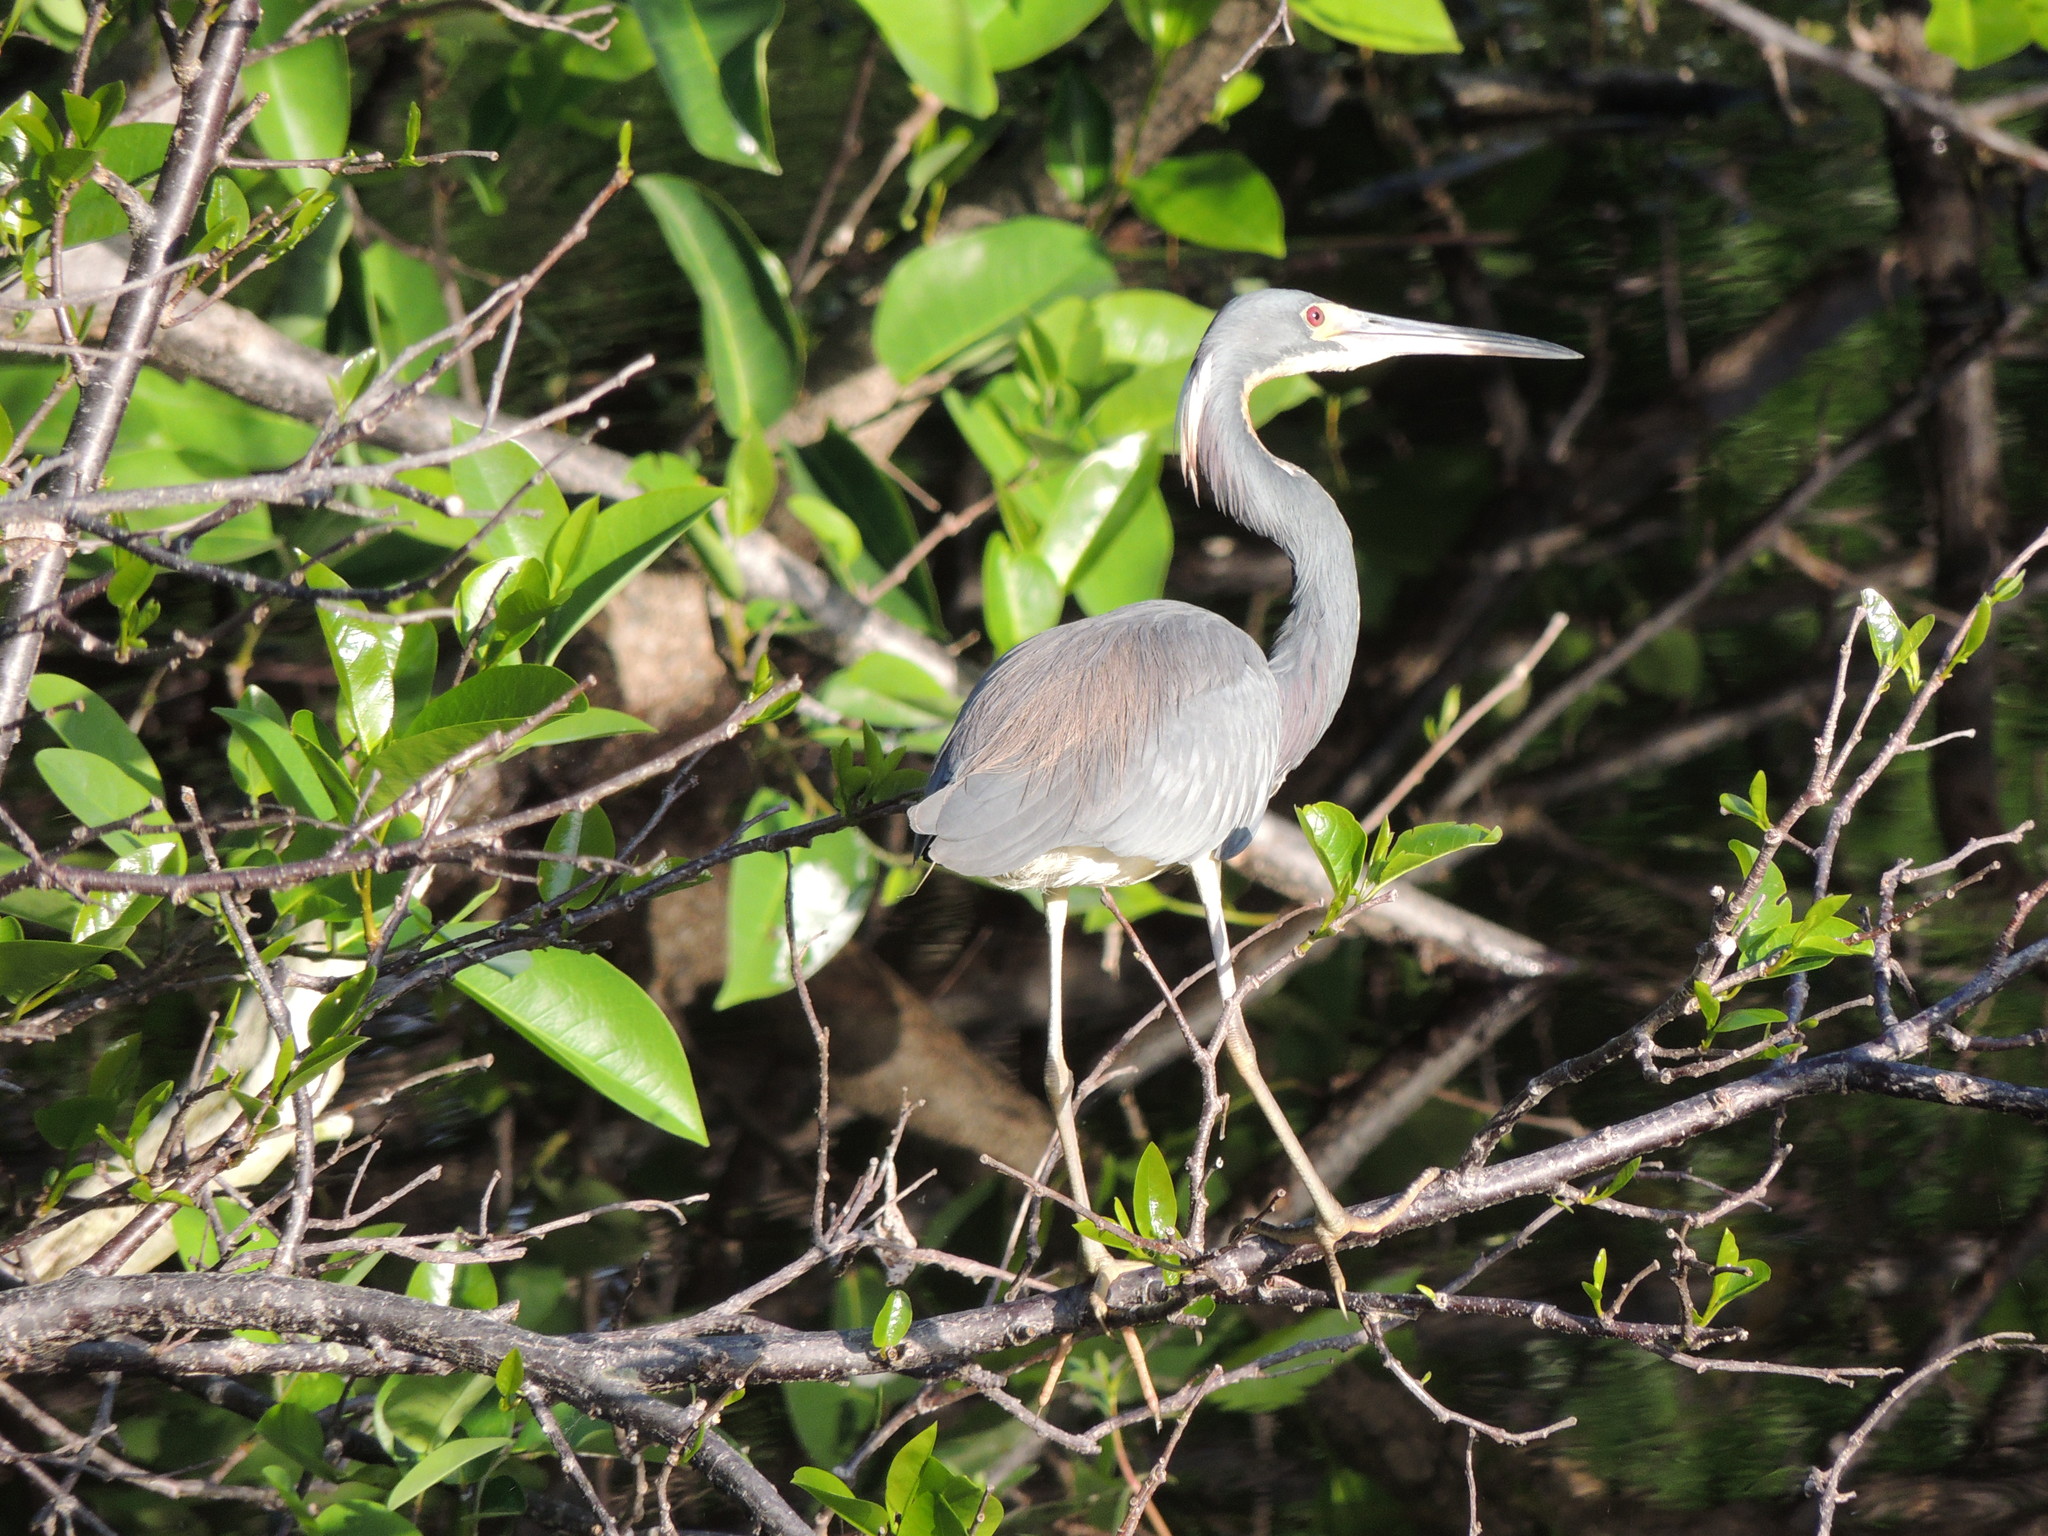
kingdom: Animalia
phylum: Chordata
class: Aves
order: Pelecaniformes
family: Ardeidae
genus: Egretta
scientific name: Egretta tricolor
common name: Tricolored heron
